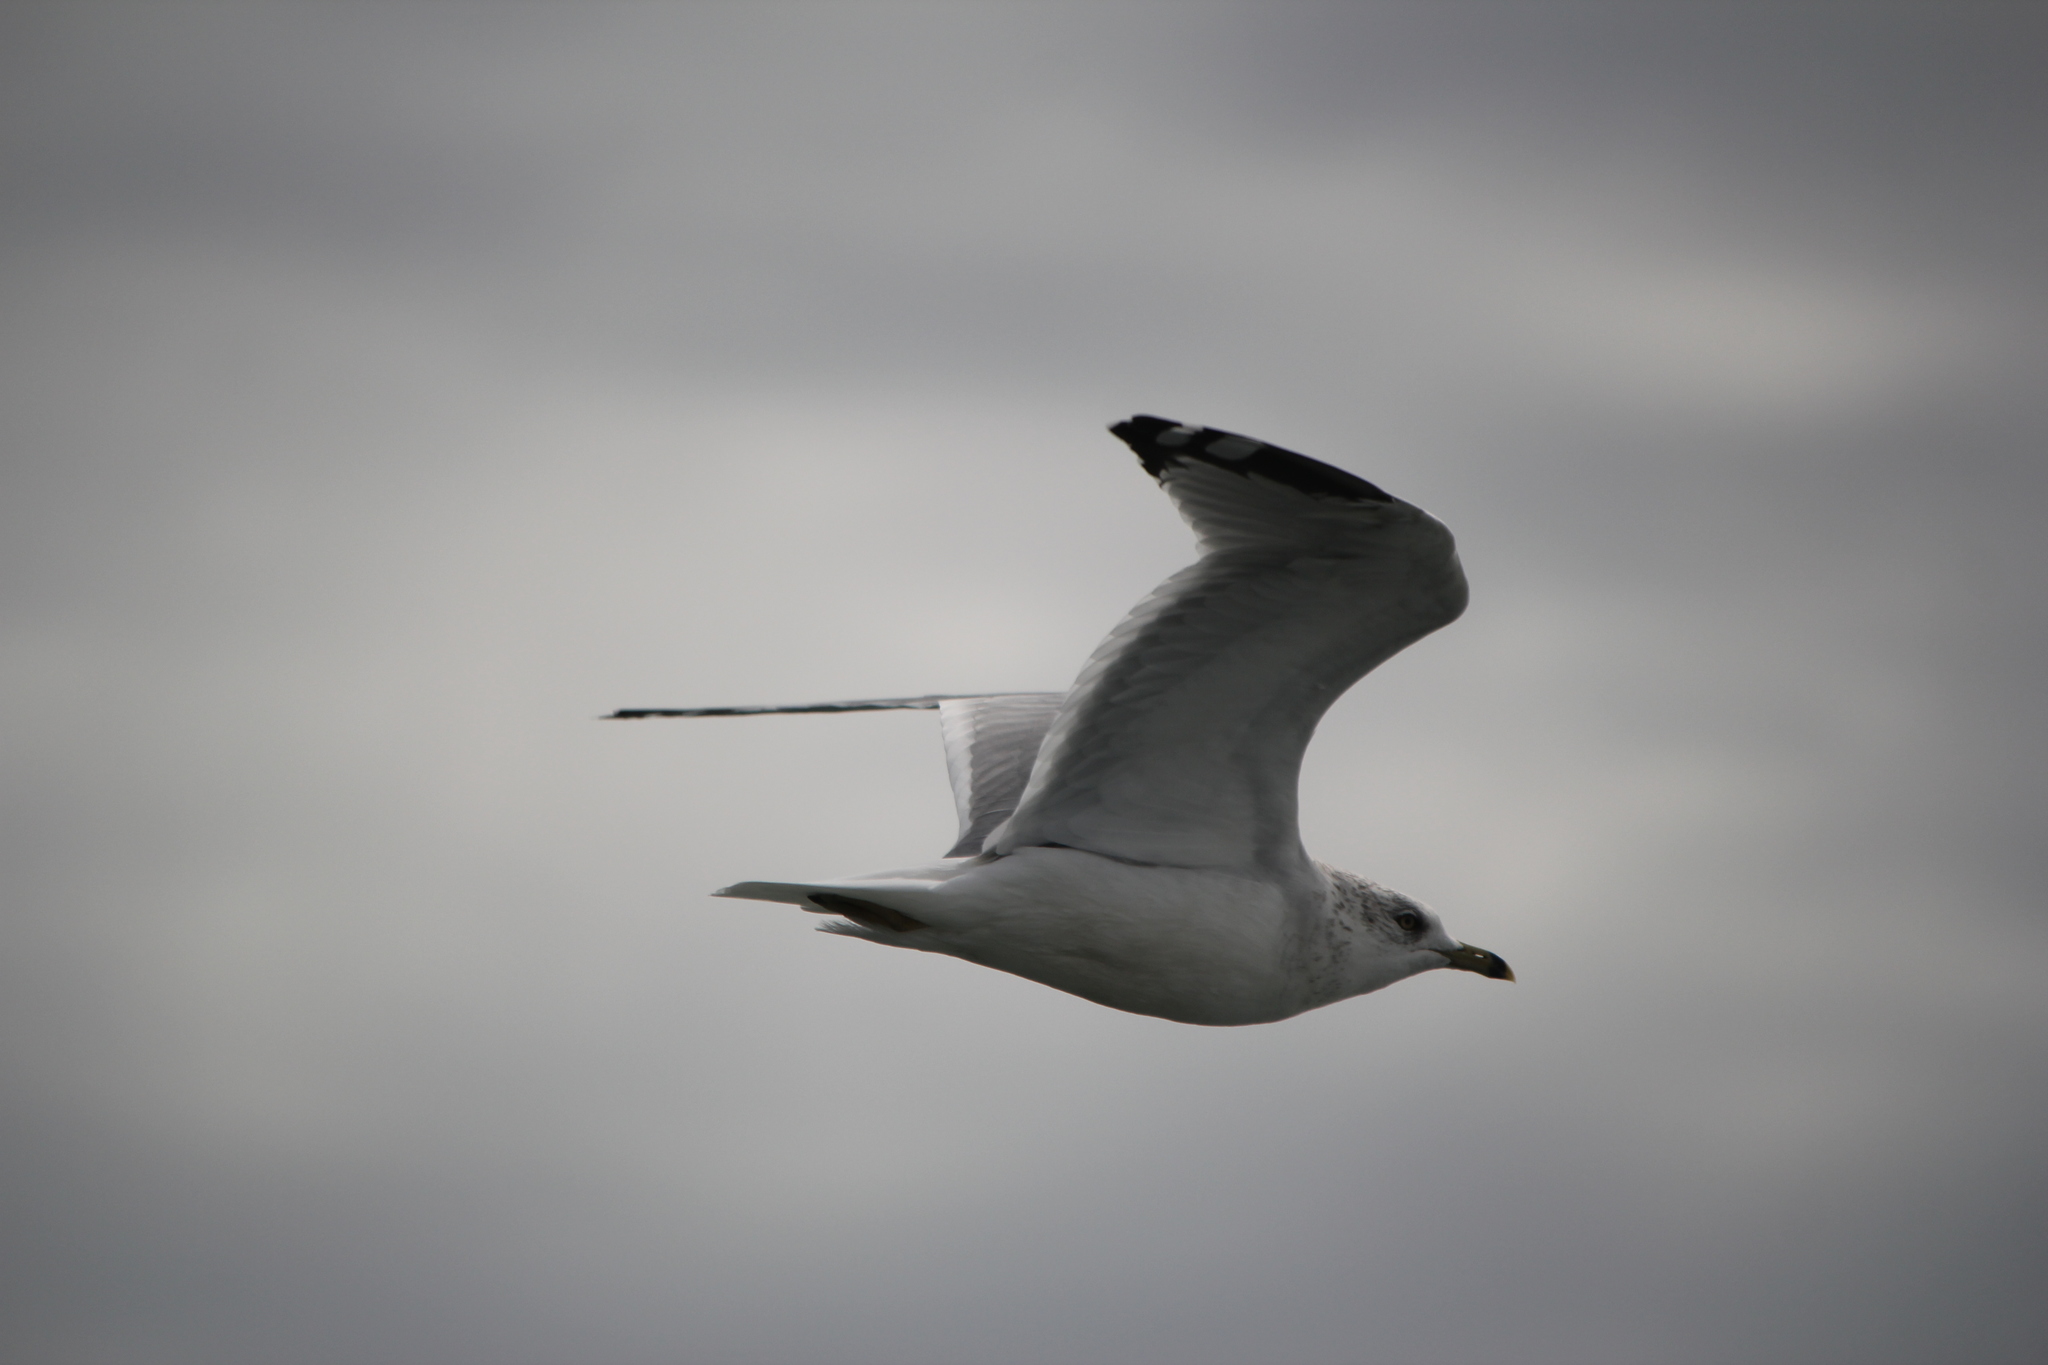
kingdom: Animalia
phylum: Chordata
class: Aves
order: Charadriiformes
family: Laridae
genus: Larus
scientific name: Larus delawarensis
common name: Ring-billed gull
